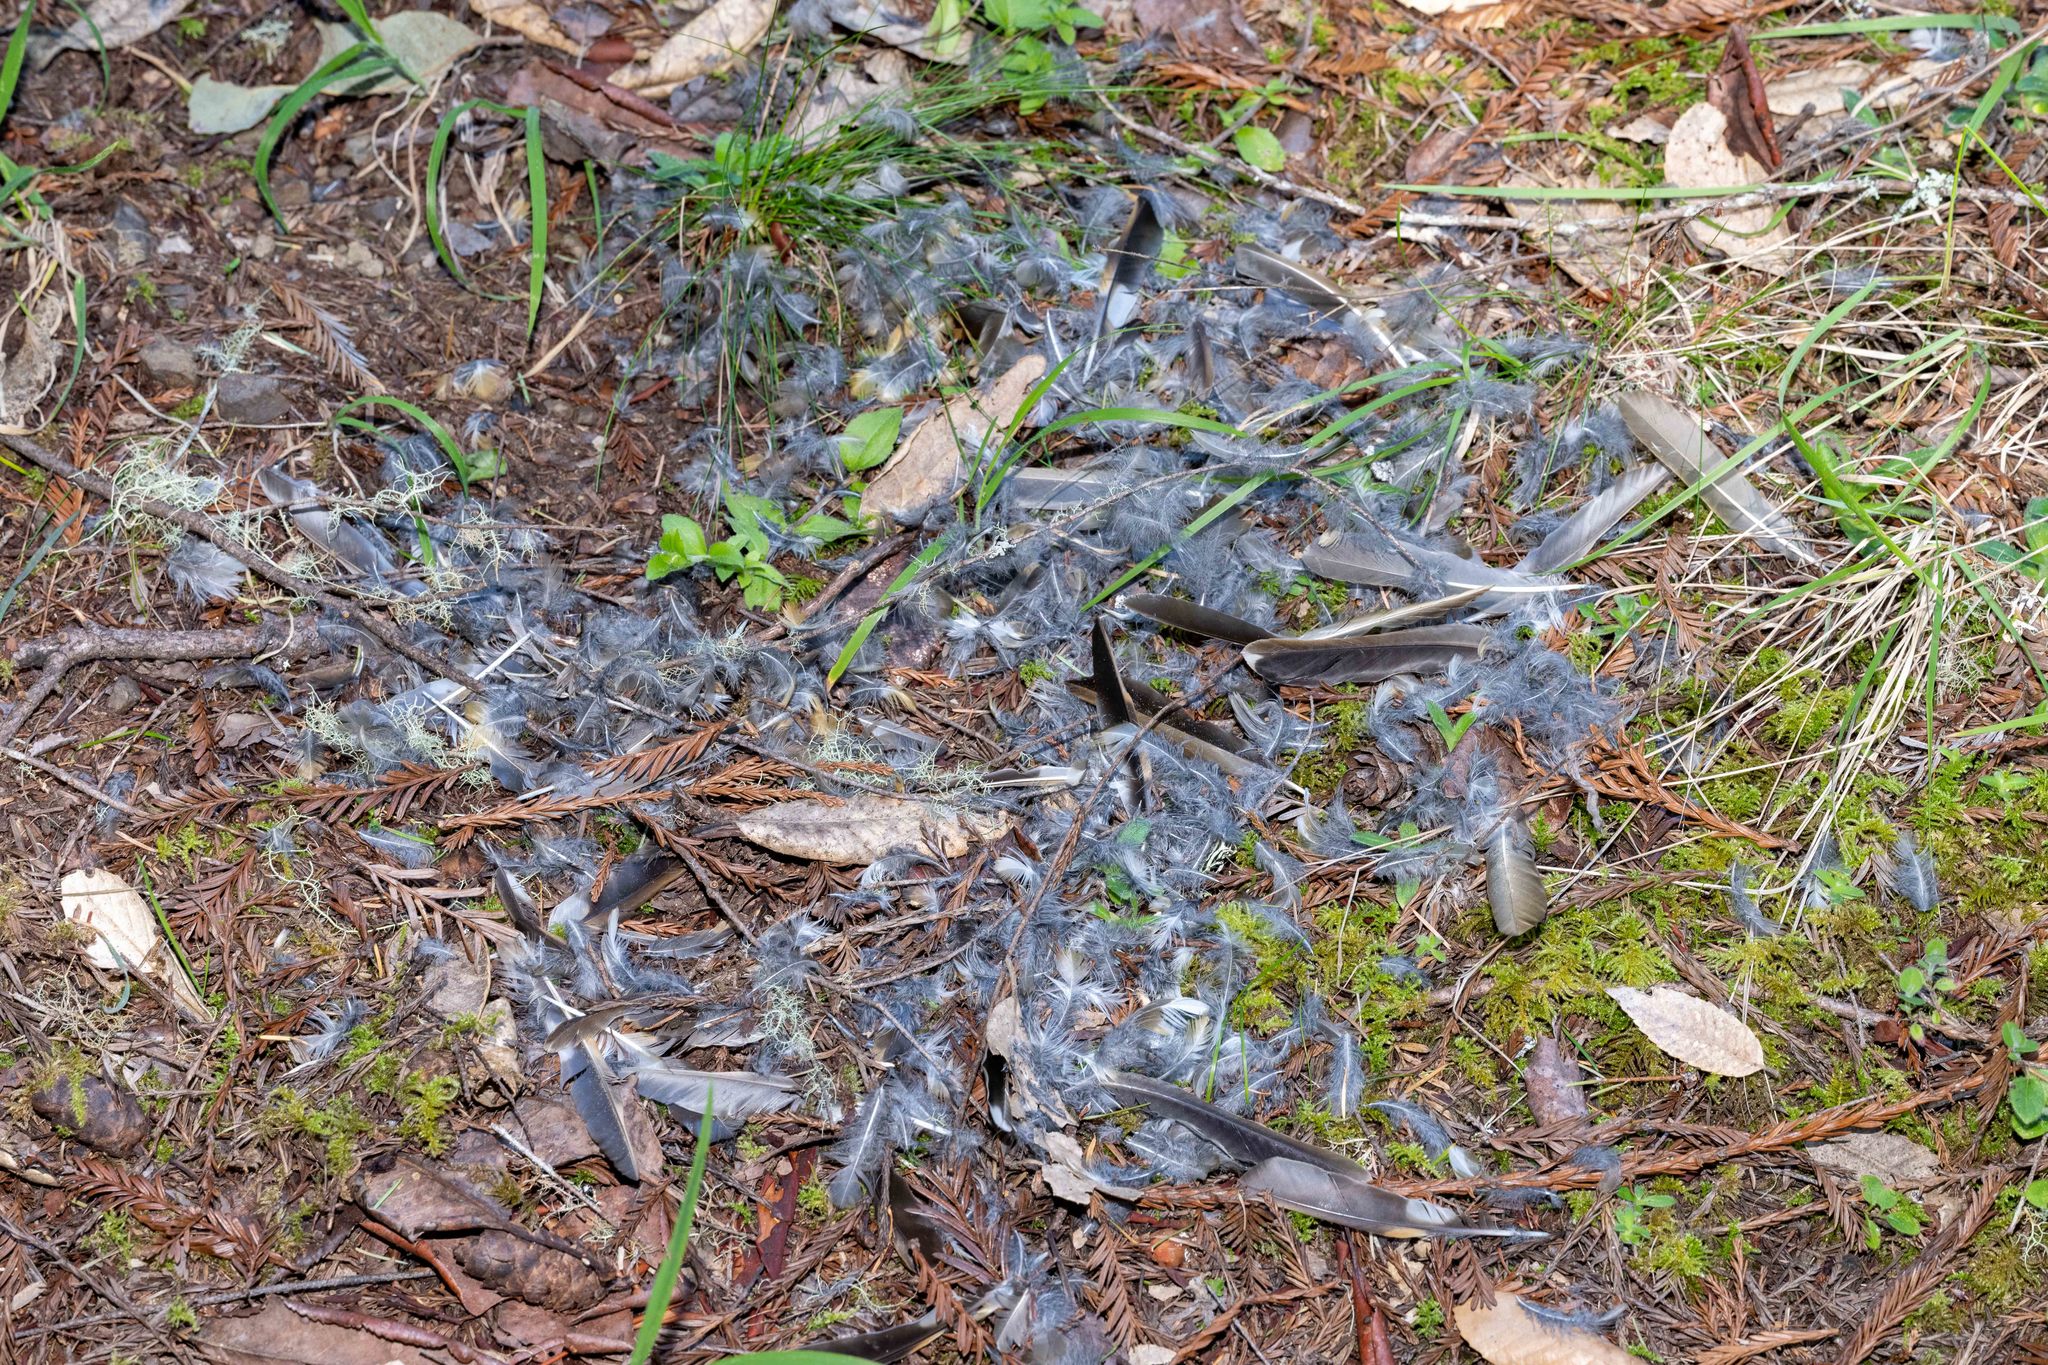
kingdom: Animalia
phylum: Chordata
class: Aves
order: Passeriformes
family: Turdidae
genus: Ixoreus
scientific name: Ixoreus naevius
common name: Varied thrush
